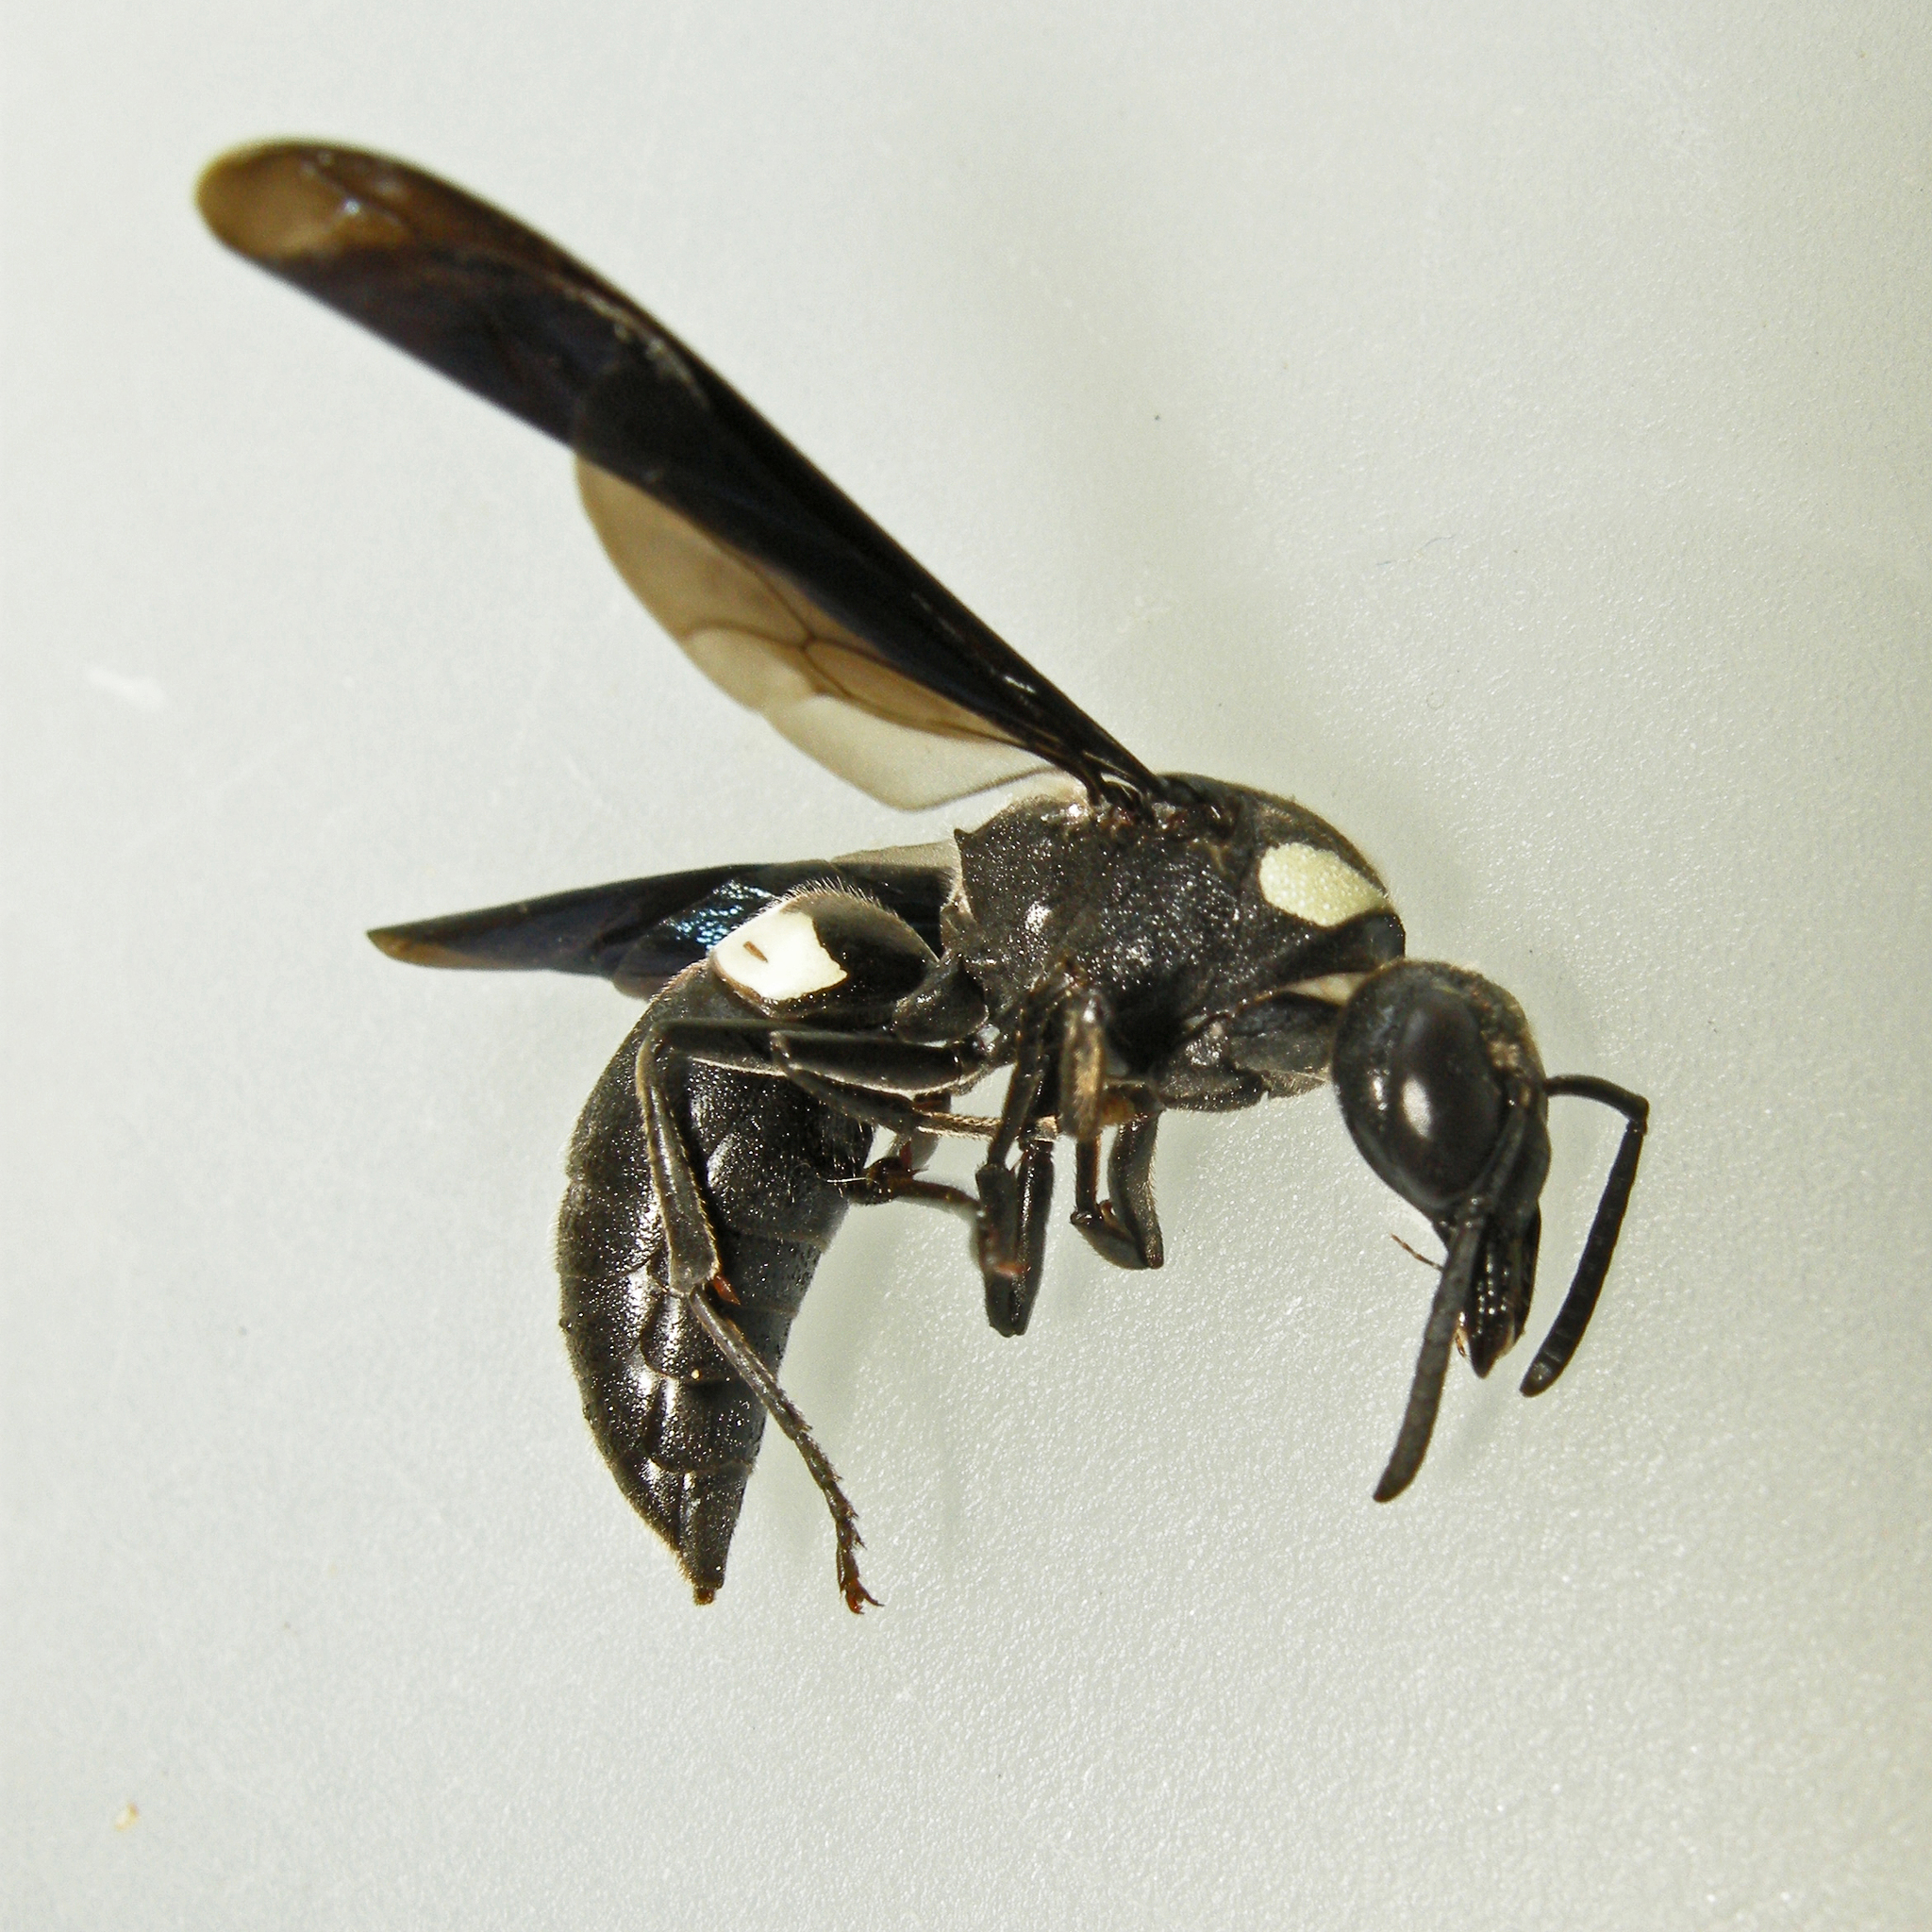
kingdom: Animalia
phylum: Arthropoda
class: Insecta
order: Hymenoptera
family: Eumenidae
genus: Monobia
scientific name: Monobia quadridens
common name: Four-toothed mason wasp
